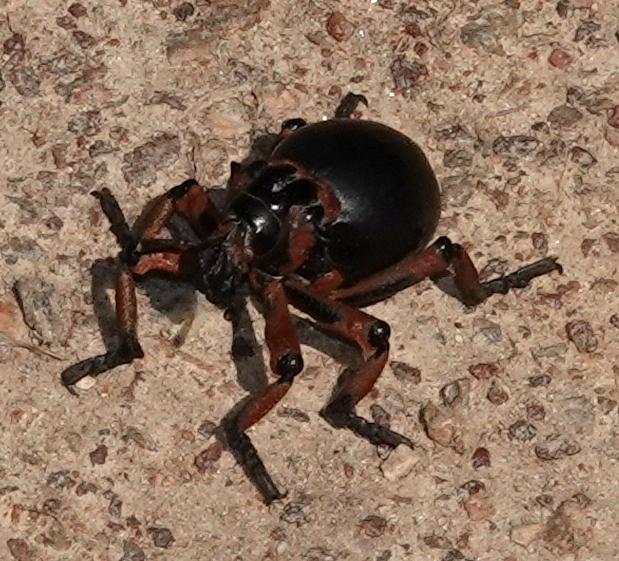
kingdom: Animalia
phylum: Arthropoda
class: Insecta
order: Coleoptera
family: Brachyceridae
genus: Brachycerus
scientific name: Brachycerus globosus
